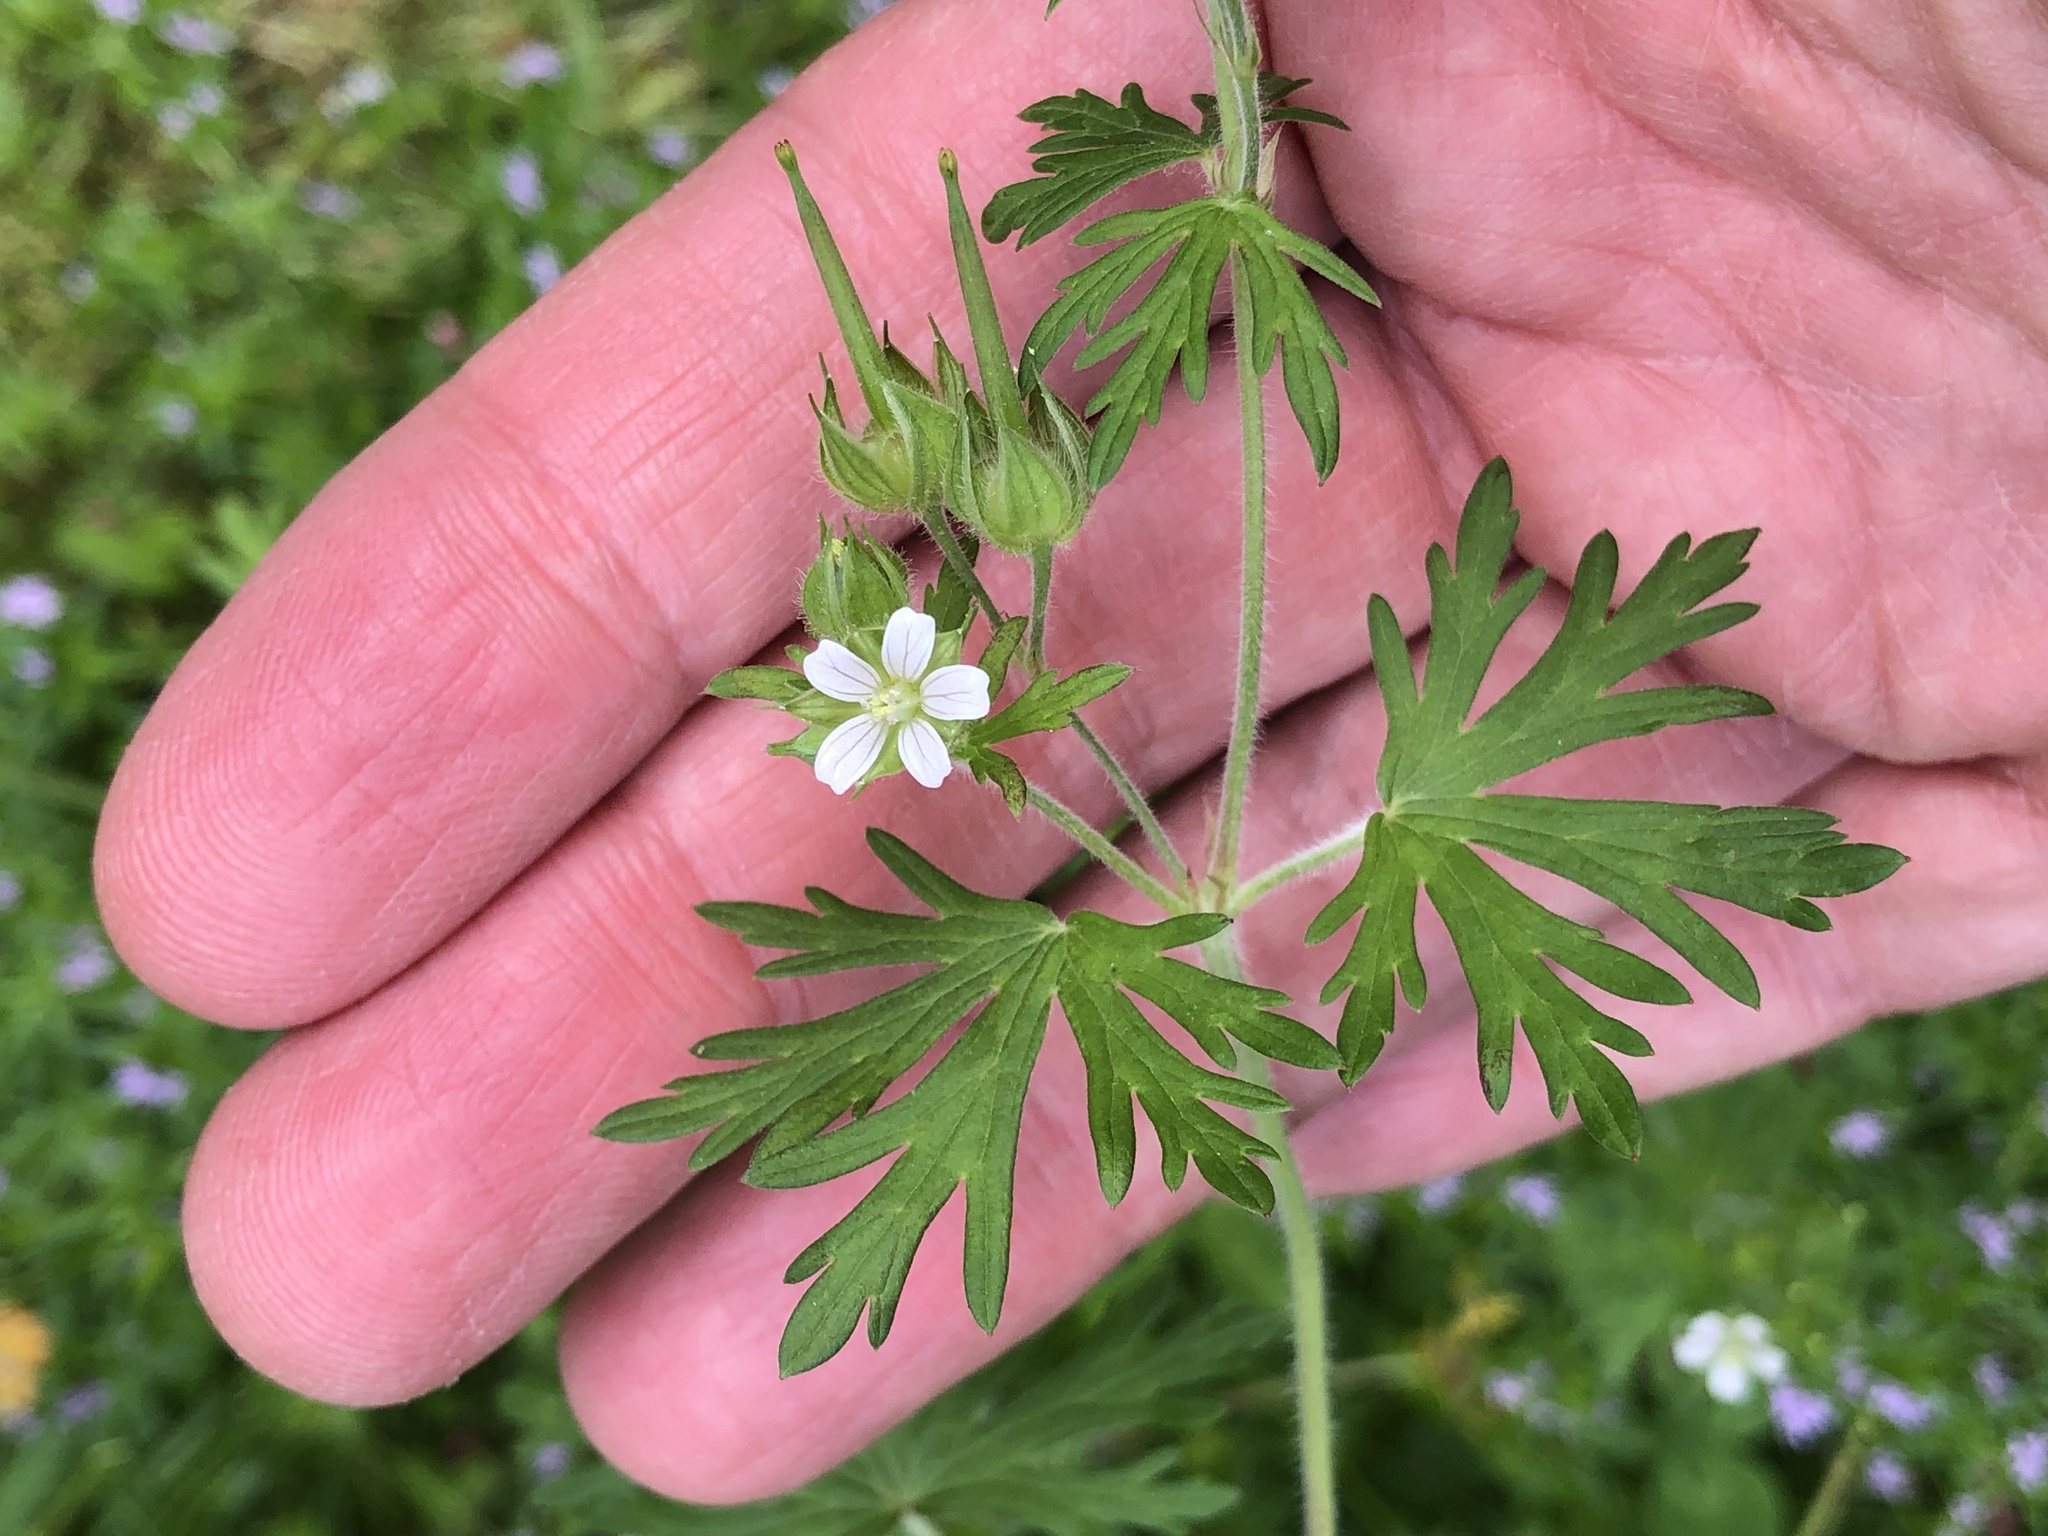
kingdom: Plantae
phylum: Tracheophyta
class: Magnoliopsida
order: Geraniales
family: Geraniaceae
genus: Geranium
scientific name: Geranium carolinianum
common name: Carolina crane's-bill
